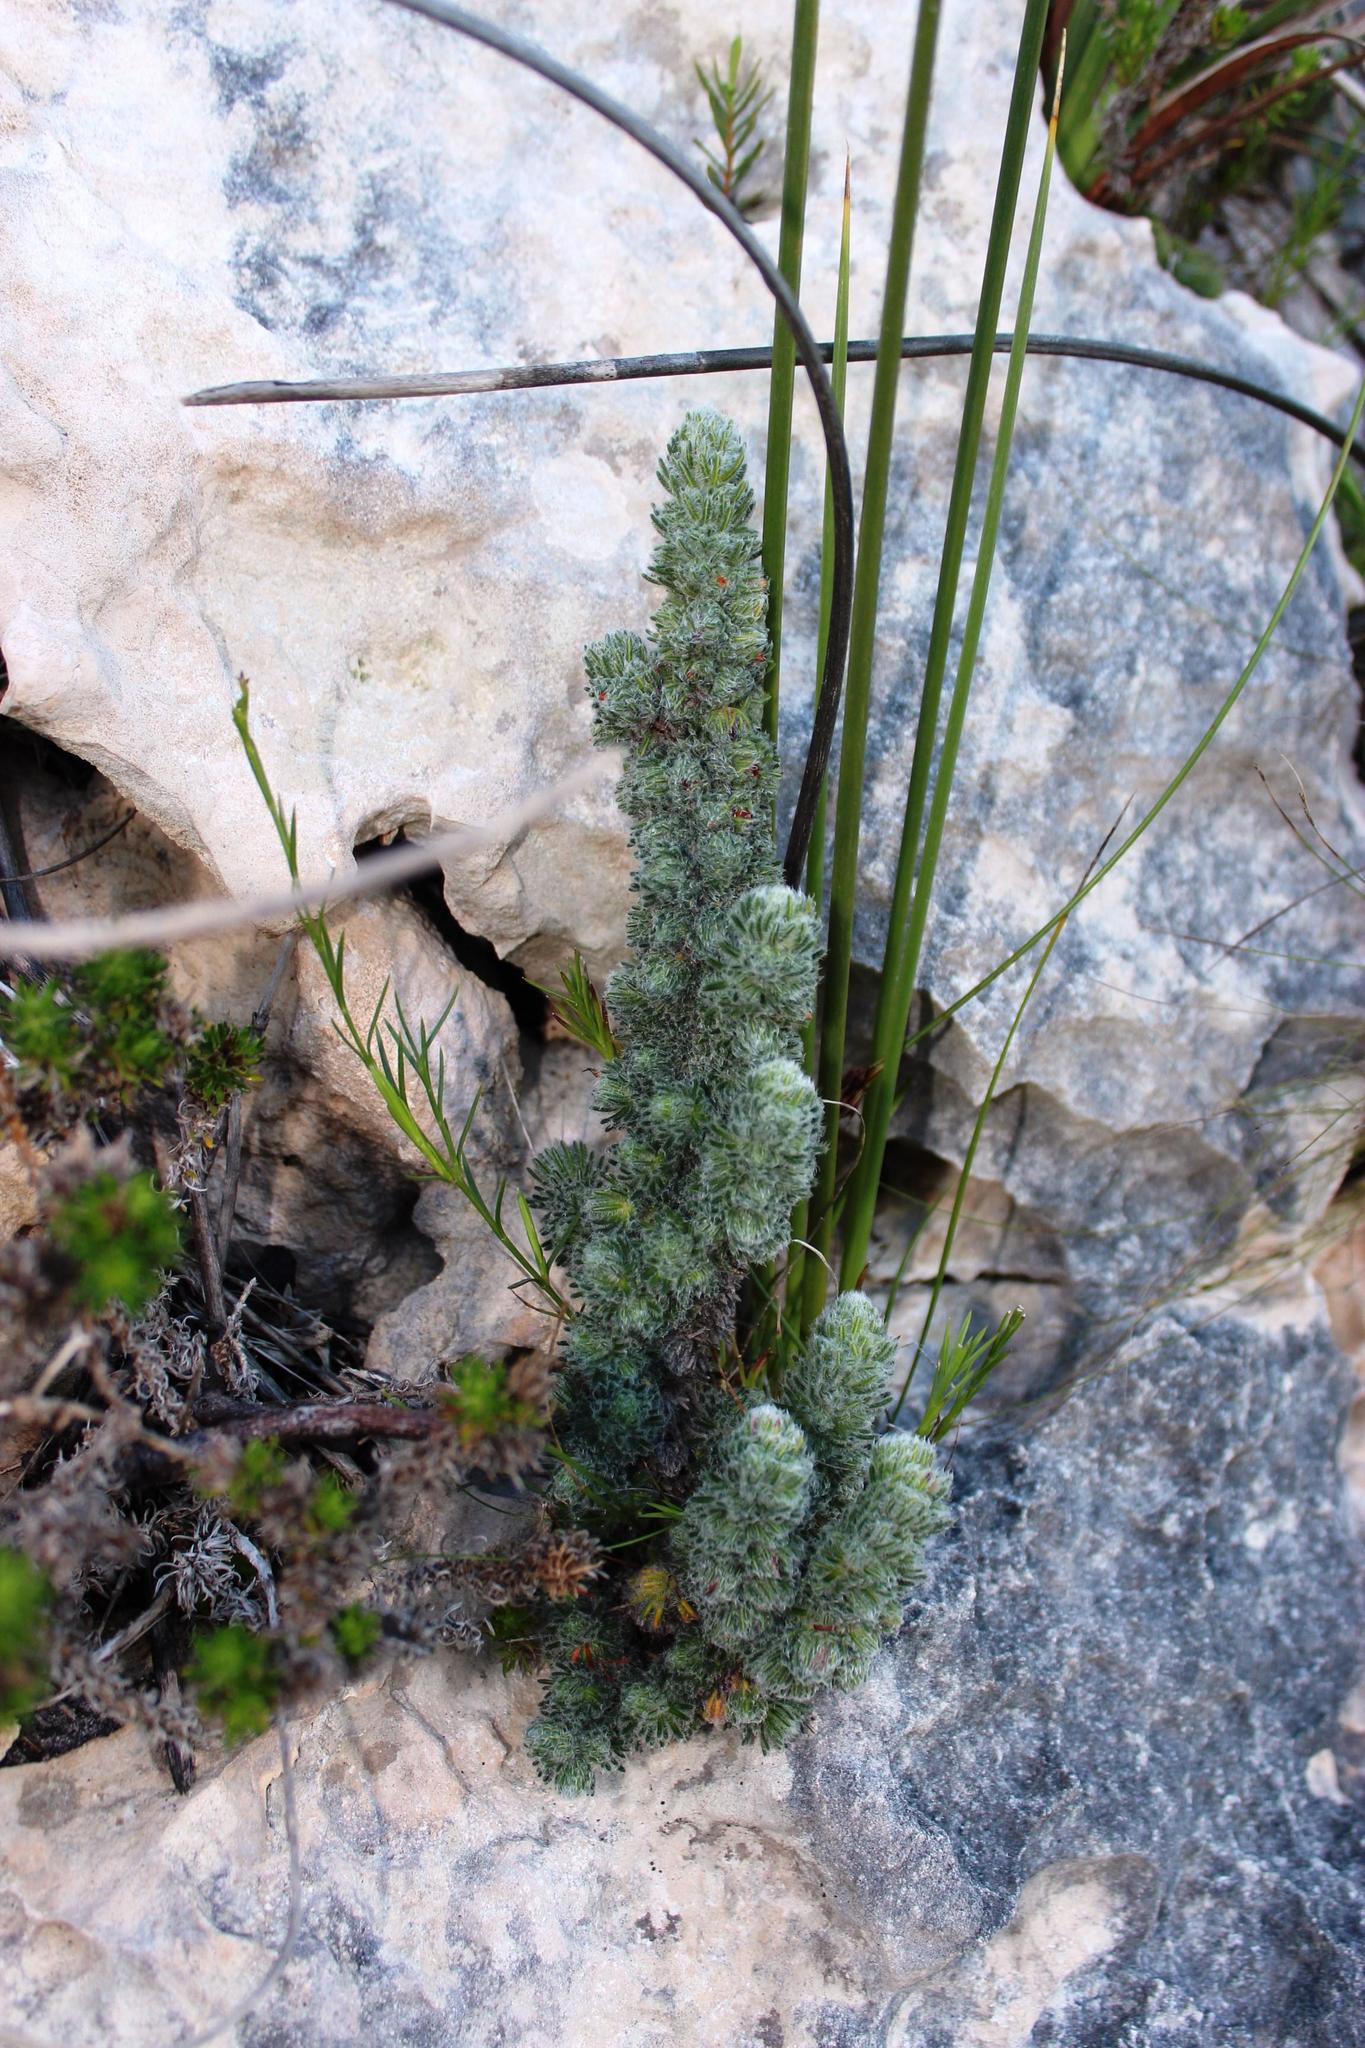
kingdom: Plantae
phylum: Tracheophyta
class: Magnoliopsida
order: Ericales
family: Ericaceae
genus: Erica
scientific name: Erica occulta
